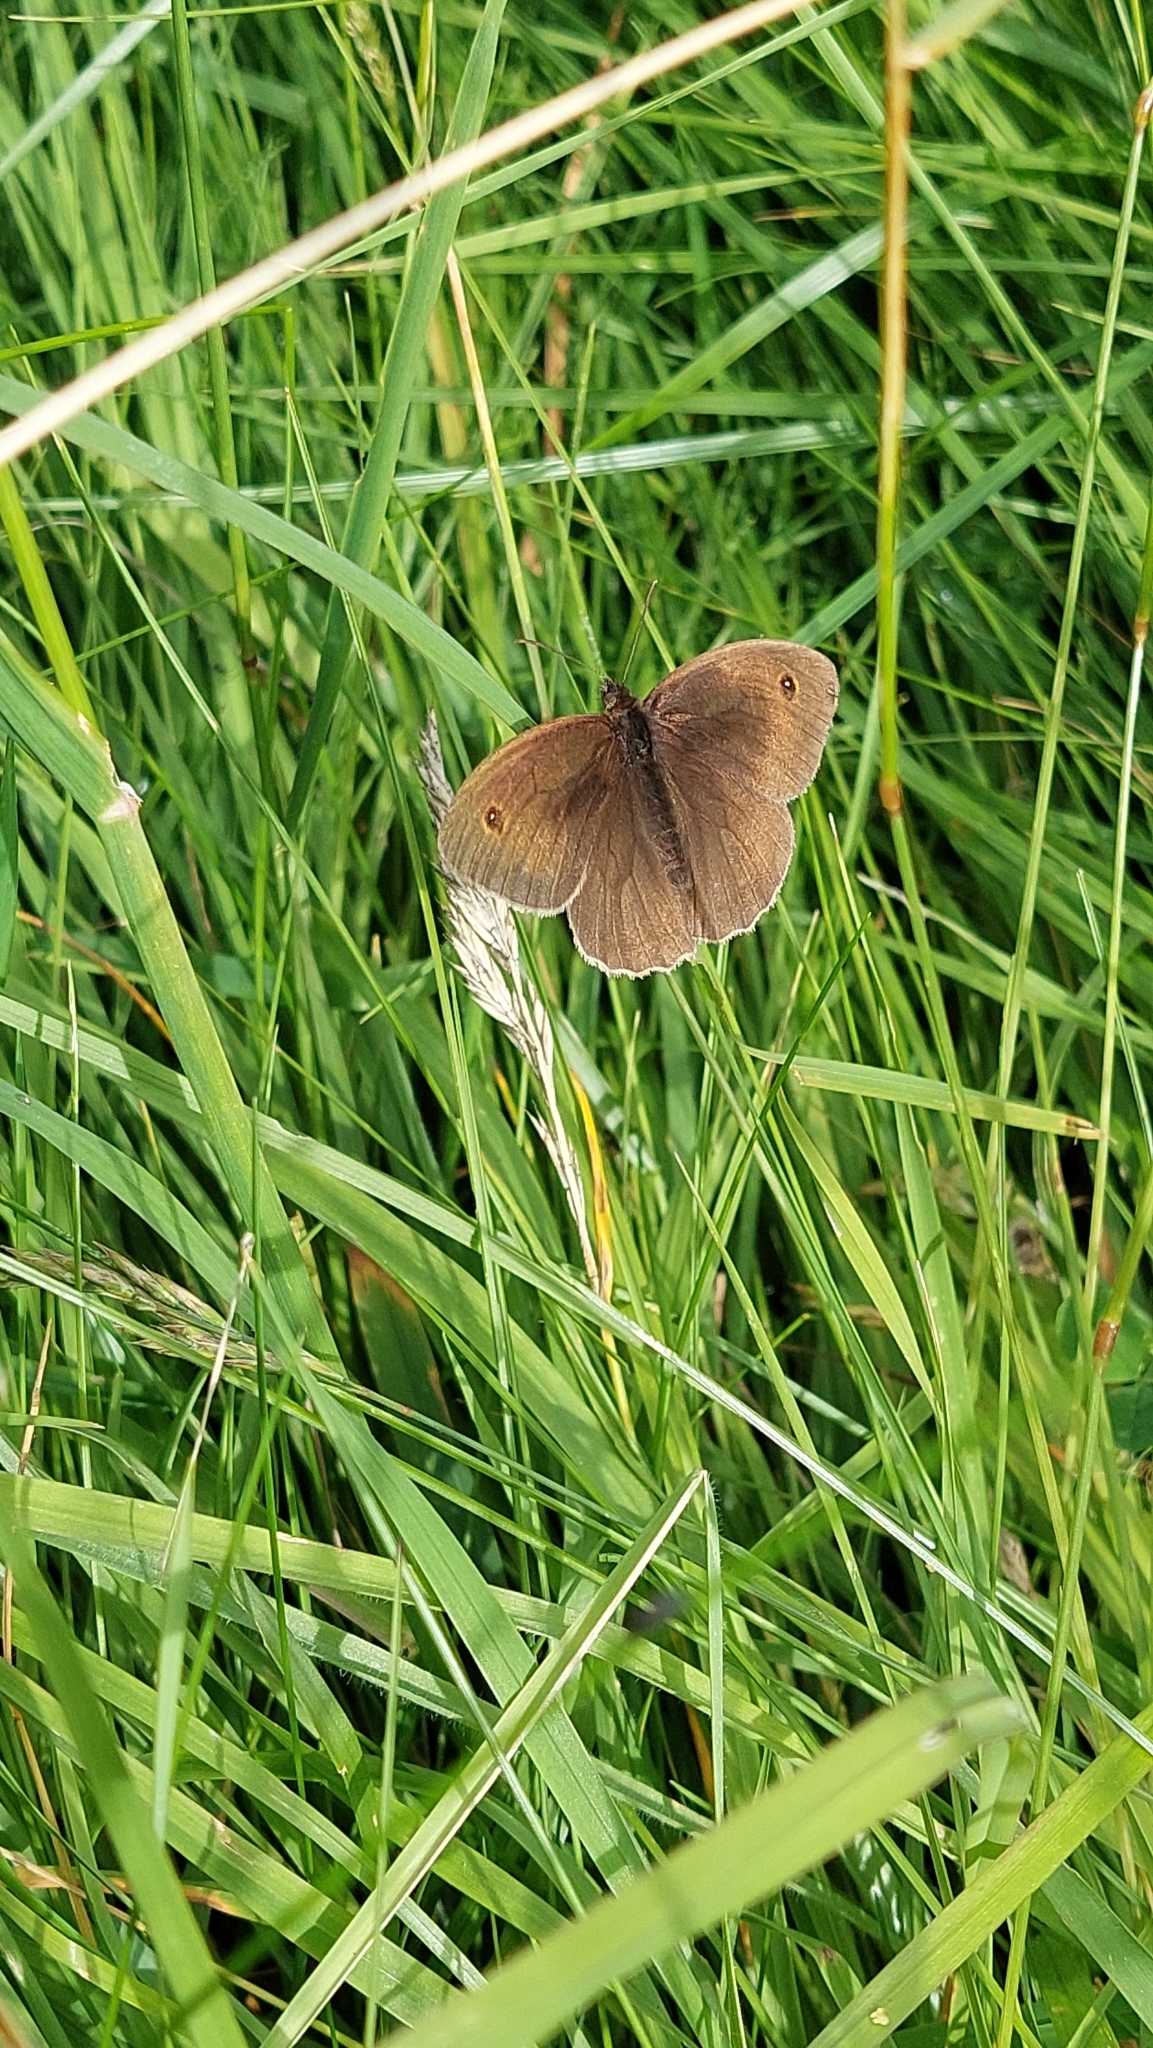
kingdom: Animalia
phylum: Arthropoda
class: Insecta
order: Lepidoptera
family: Nymphalidae
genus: Aphantopus
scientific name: Aphantopus hyperantus
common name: Ringlet
